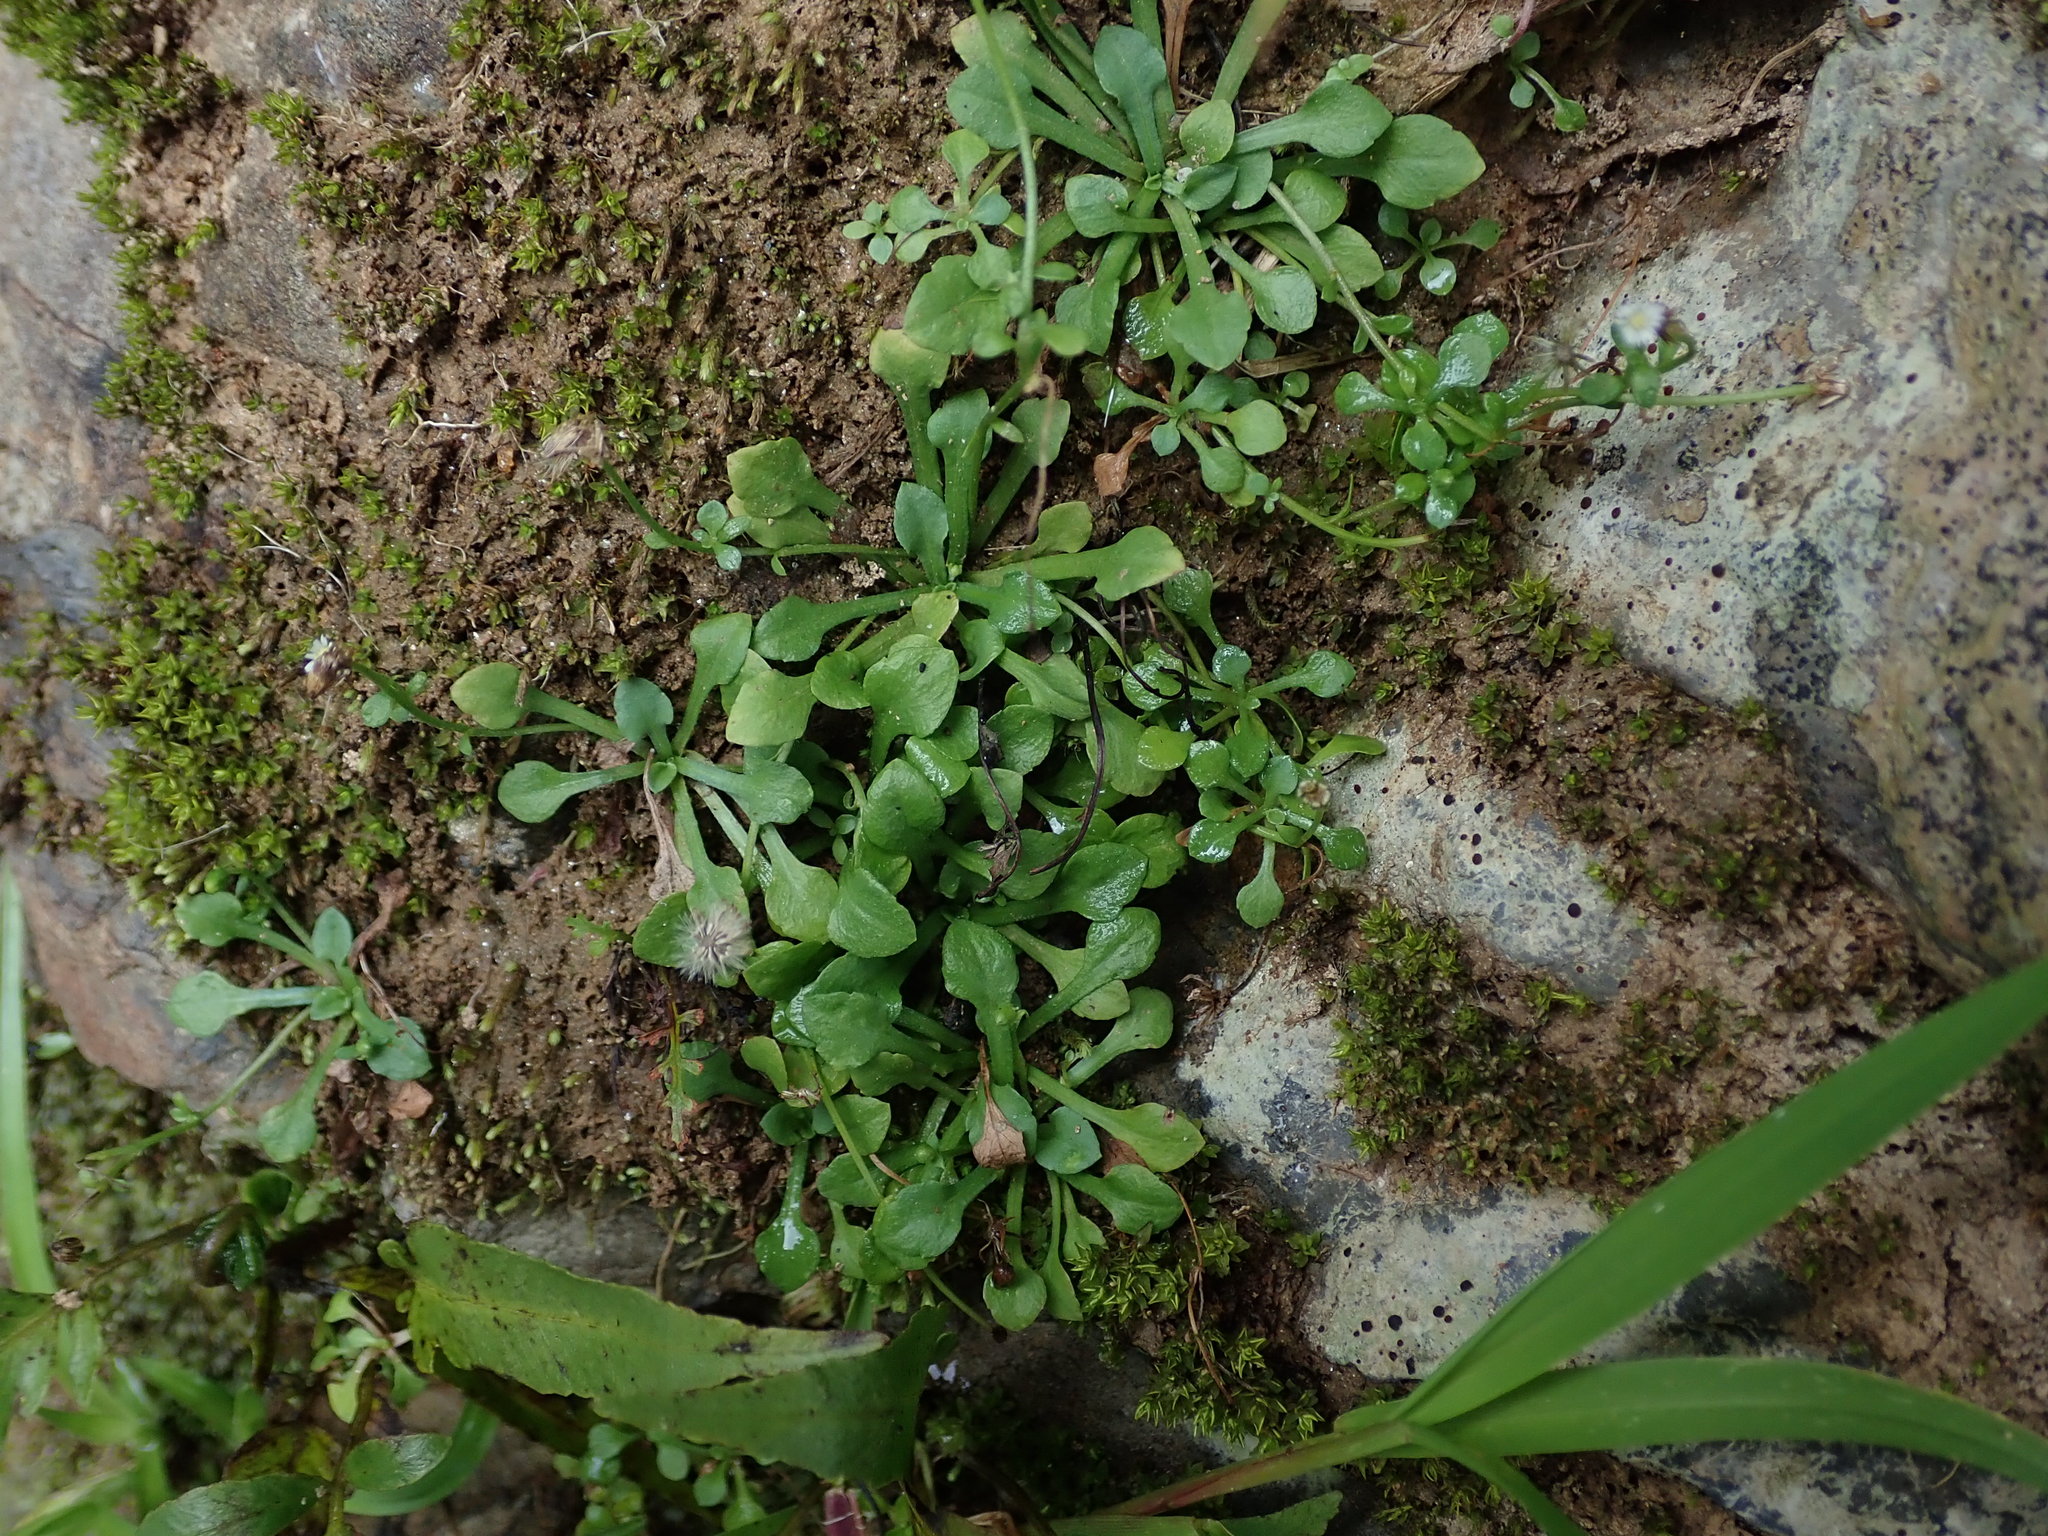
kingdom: Plantae
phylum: Tracheophyta
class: Magnoliopsida
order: Asterales
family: Asteraceae
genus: Erigeron
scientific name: Erigeron bellioides
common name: Bellorita
